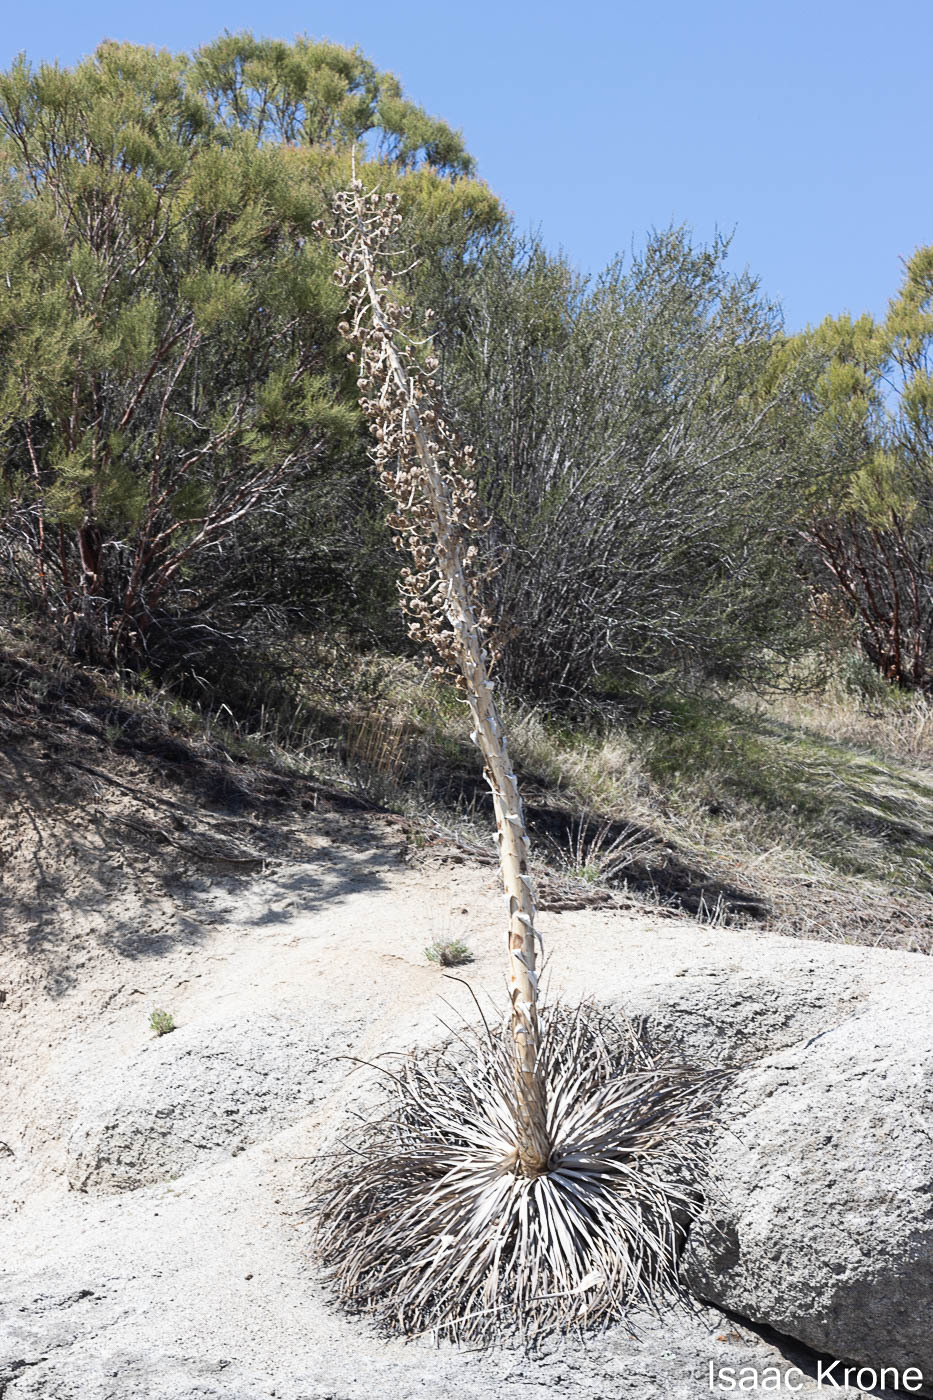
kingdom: Plantae
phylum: Tracheophyta
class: Liliopsida
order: Asparagales
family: Asparagaceae
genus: Hesperoyucca
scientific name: Hesperoyucca whipplei
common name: Our lord's-candle
